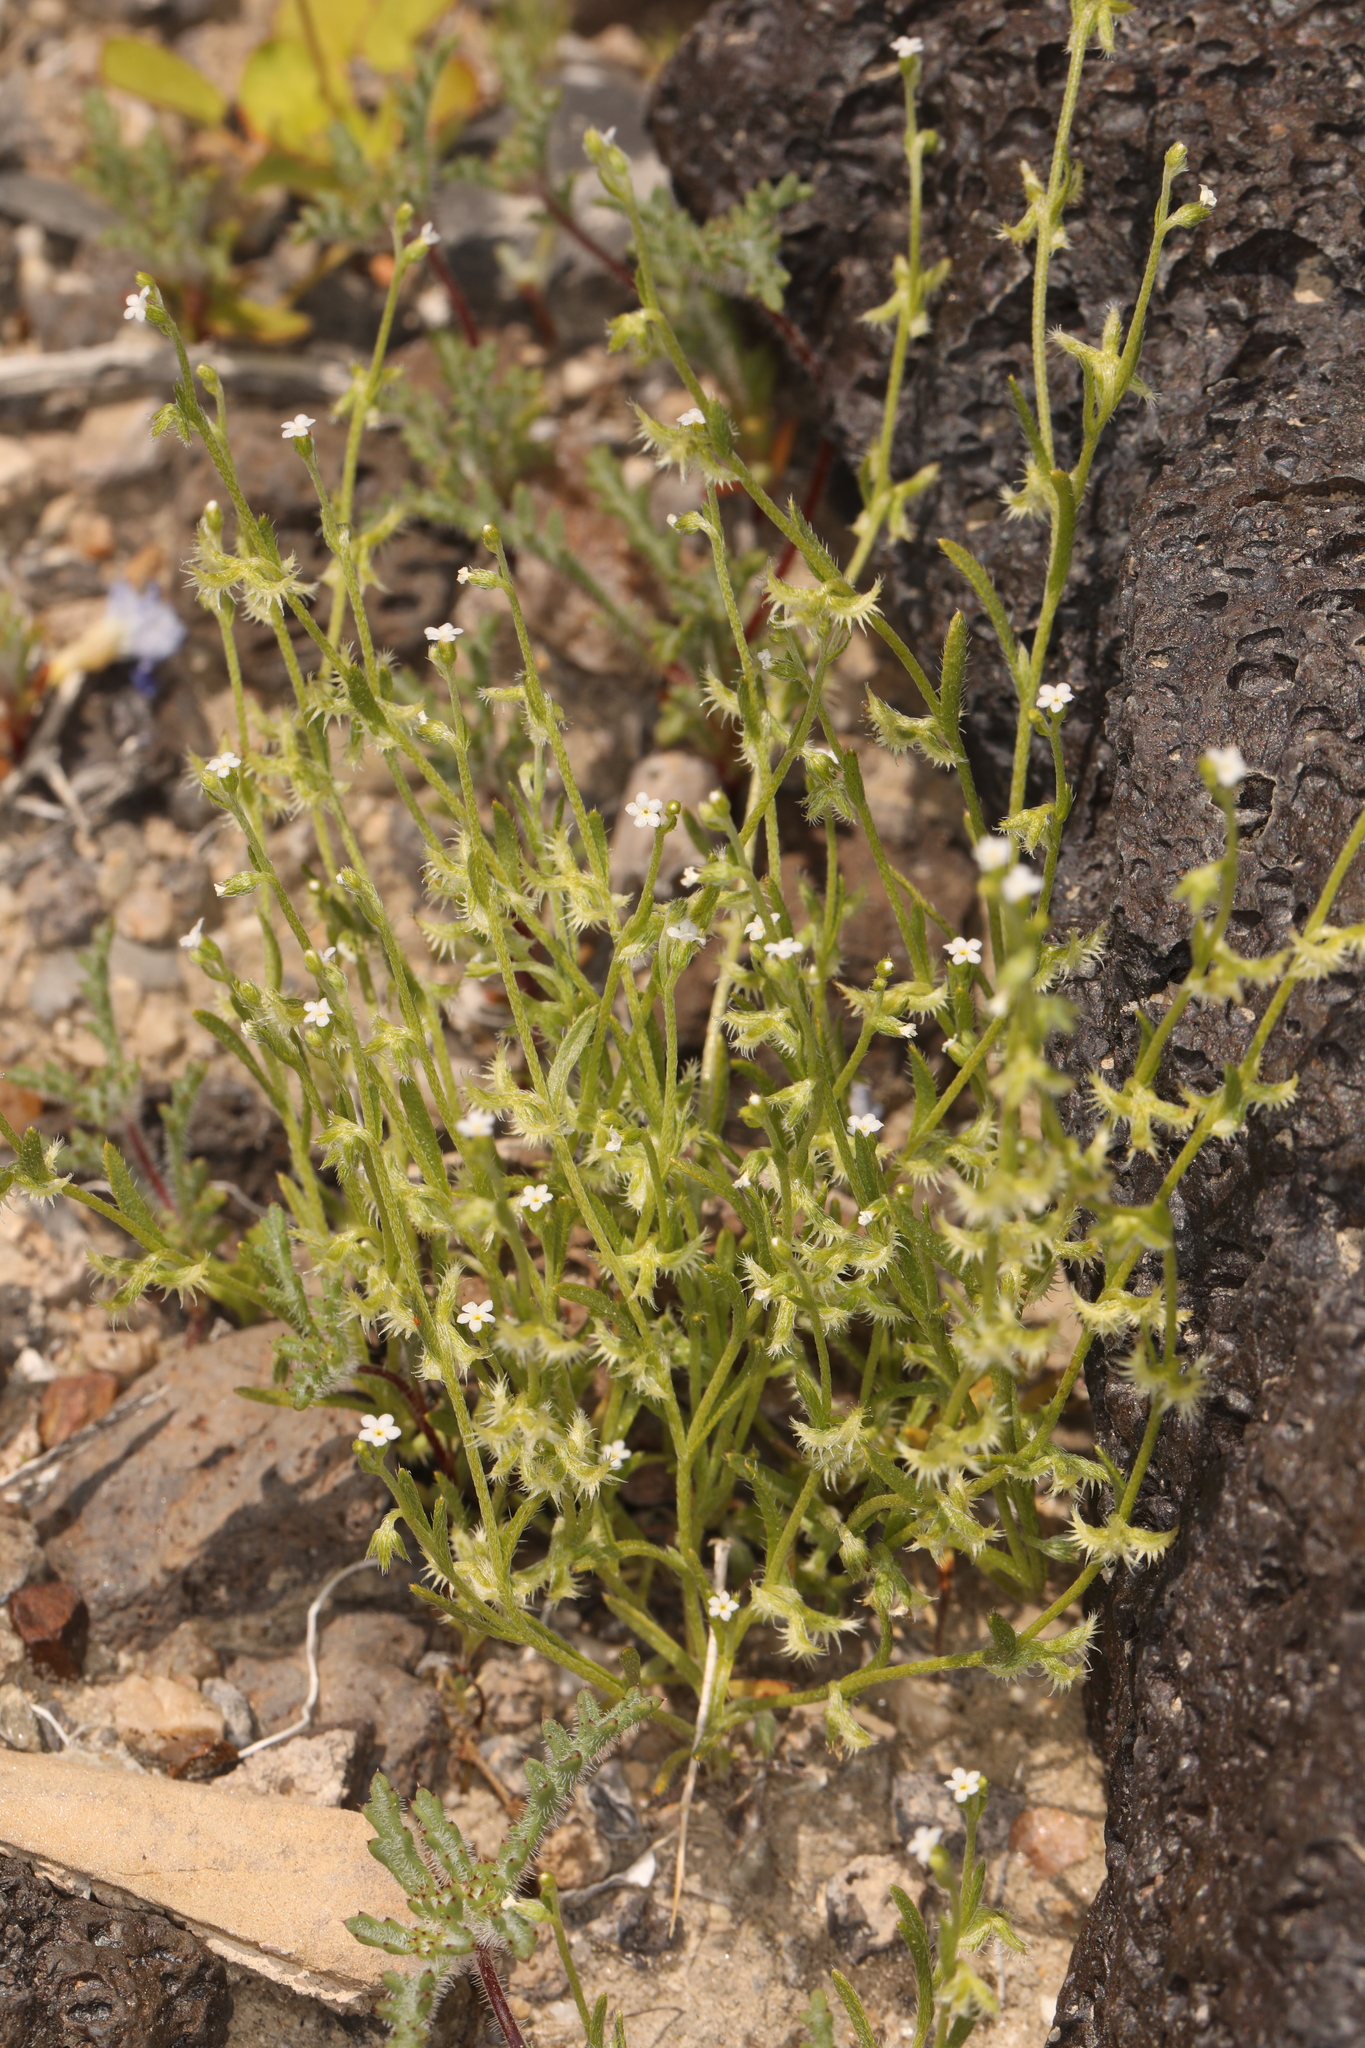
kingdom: Plantae
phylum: Tracheophyta
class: Magnoliopsida
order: Boraginales
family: Boraginaceae
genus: Pectocarya
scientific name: Pectocarya recurvata
